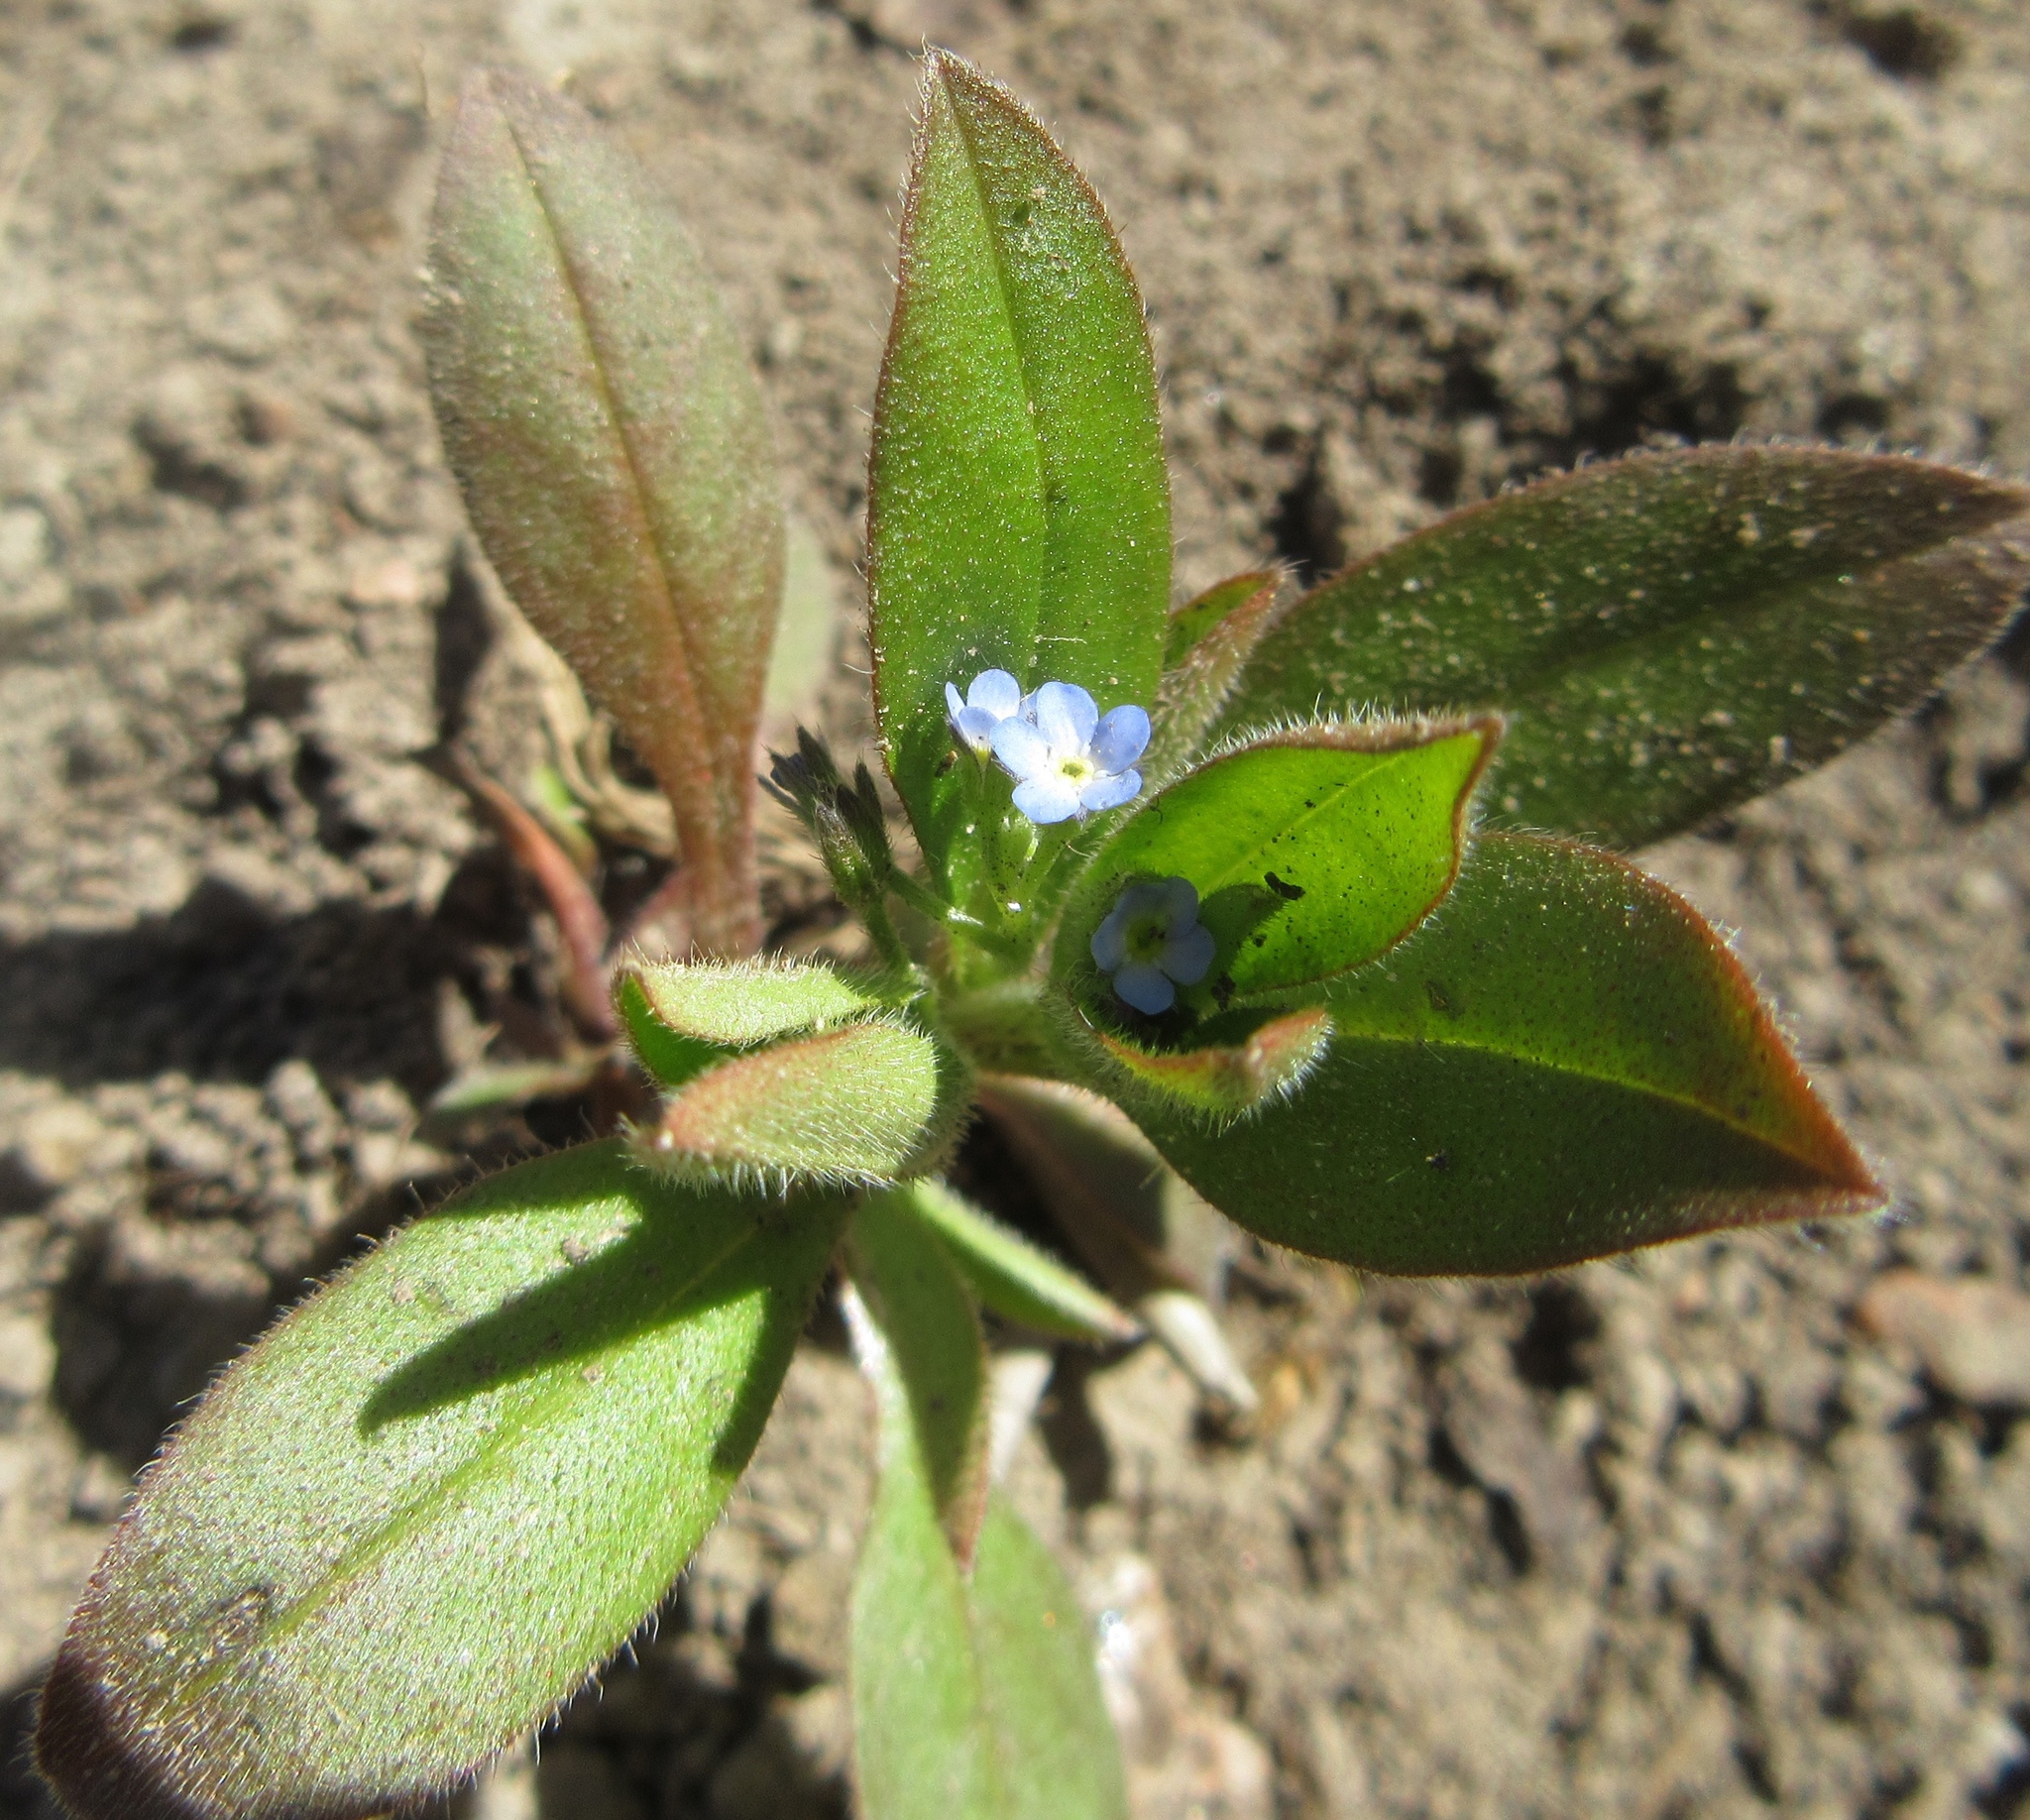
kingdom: Plantae
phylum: Tracheophyta
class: Magnoliopsida
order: Boraginales
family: Boraginaceae
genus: Myosotis
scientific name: Myosotis sparsiflora
